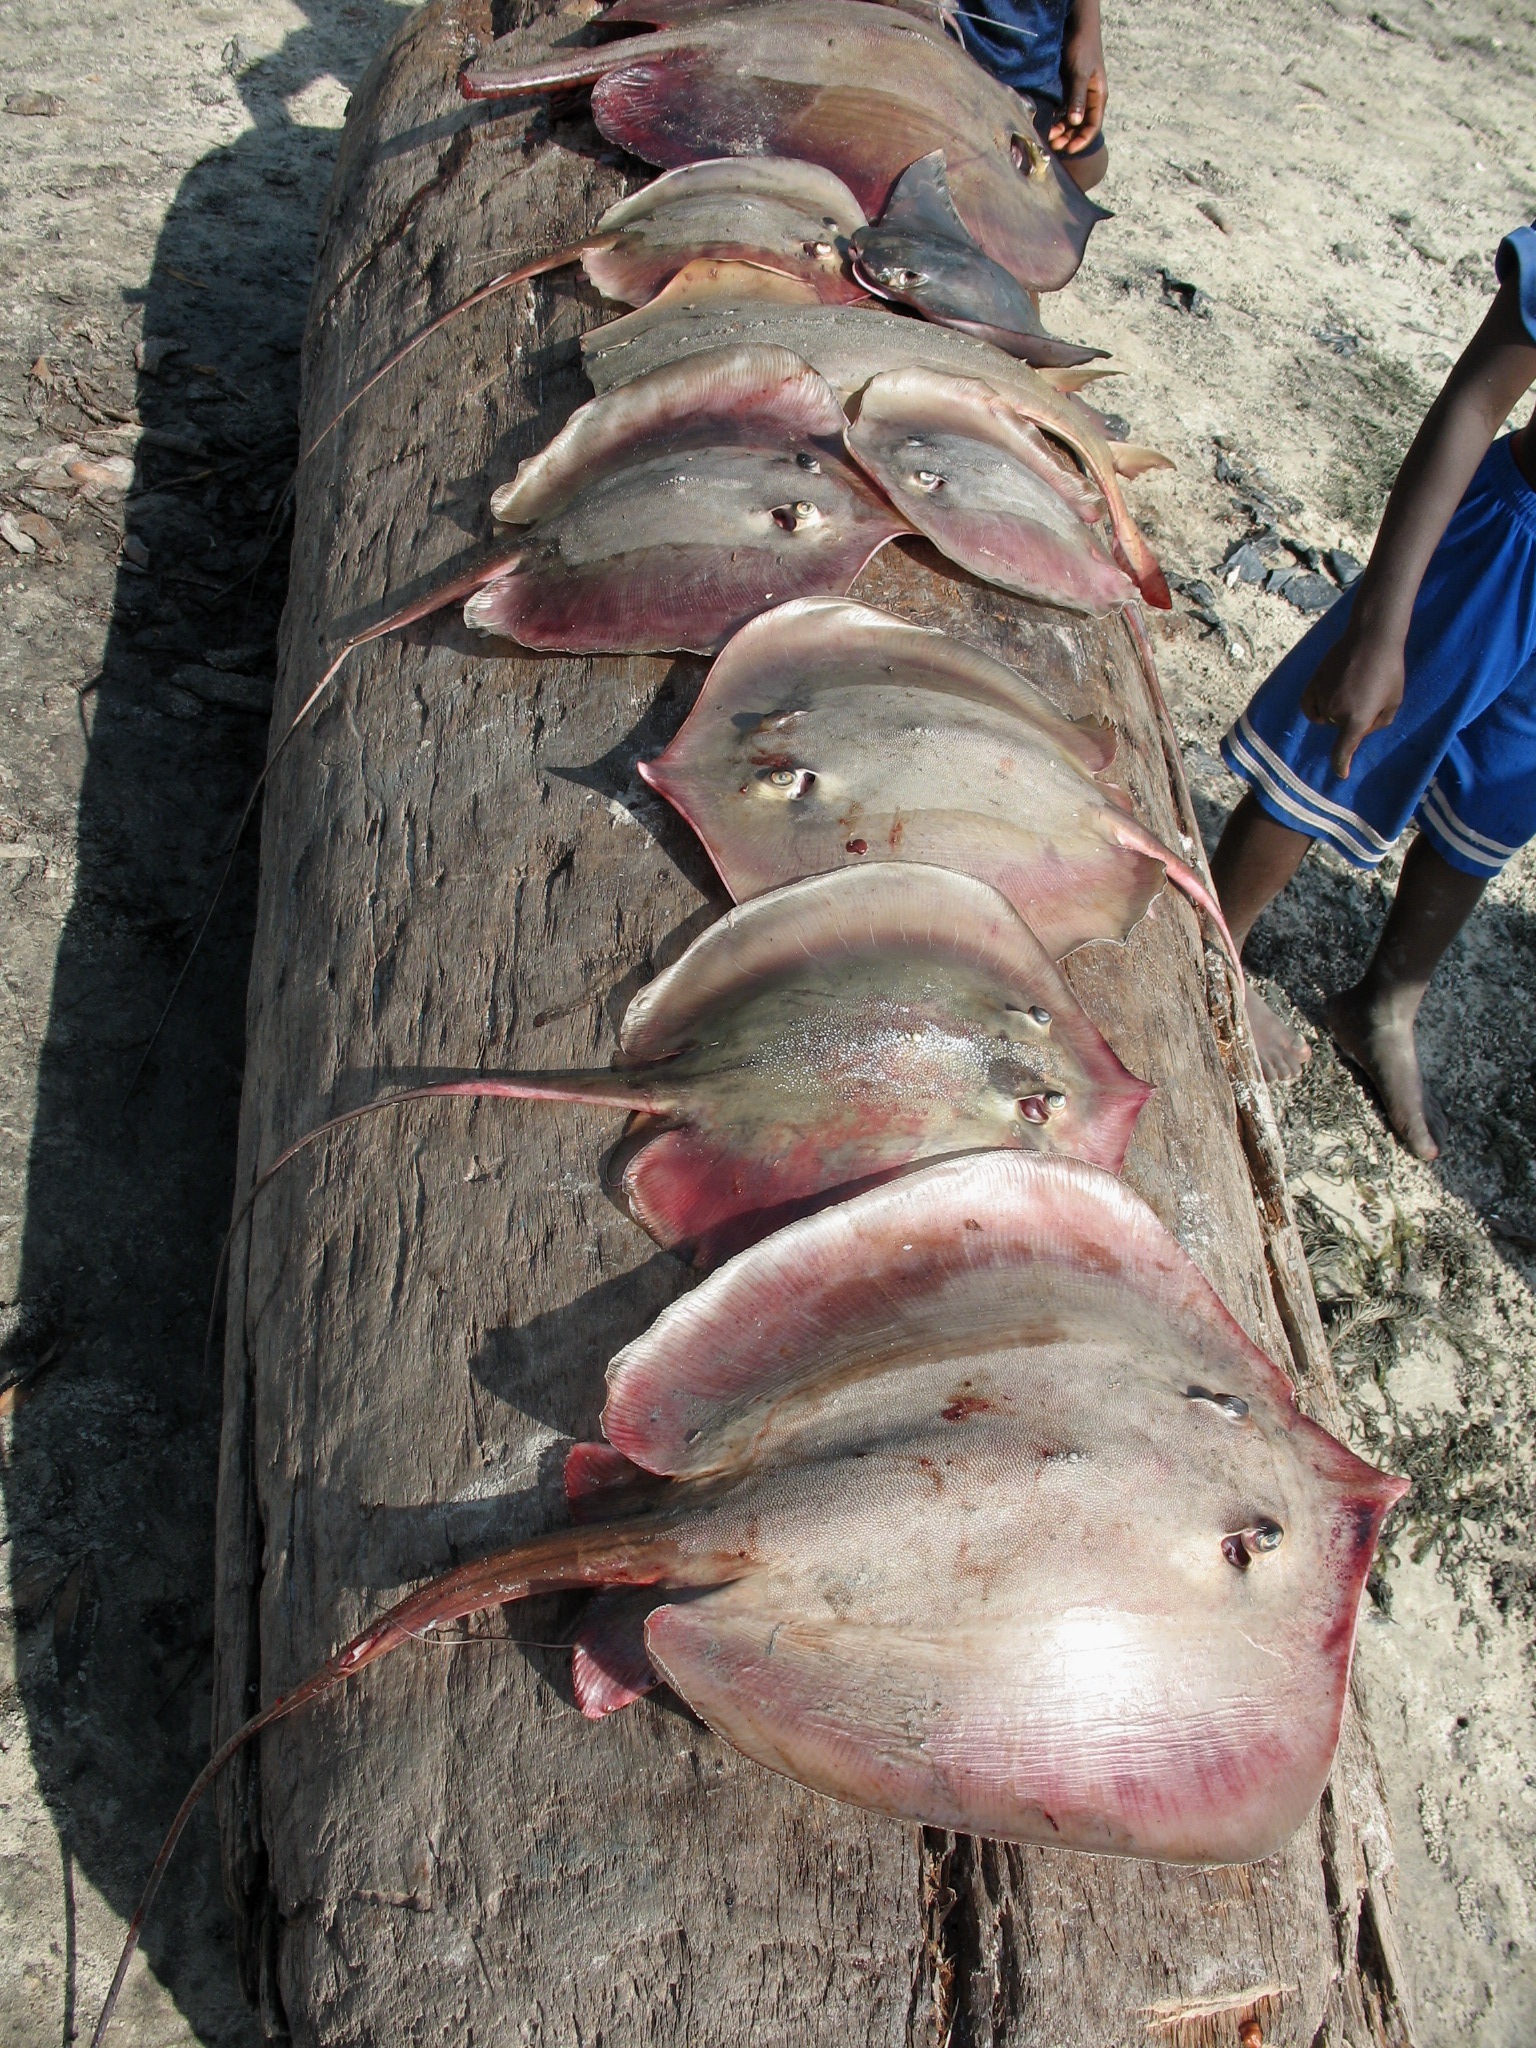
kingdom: Animalia
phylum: Chordata
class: Elasmobranchii
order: Myliobatiformes
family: Dasyatidae
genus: Fontitrygon
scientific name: Fontitrygon margaritella
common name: Pearl stingray
